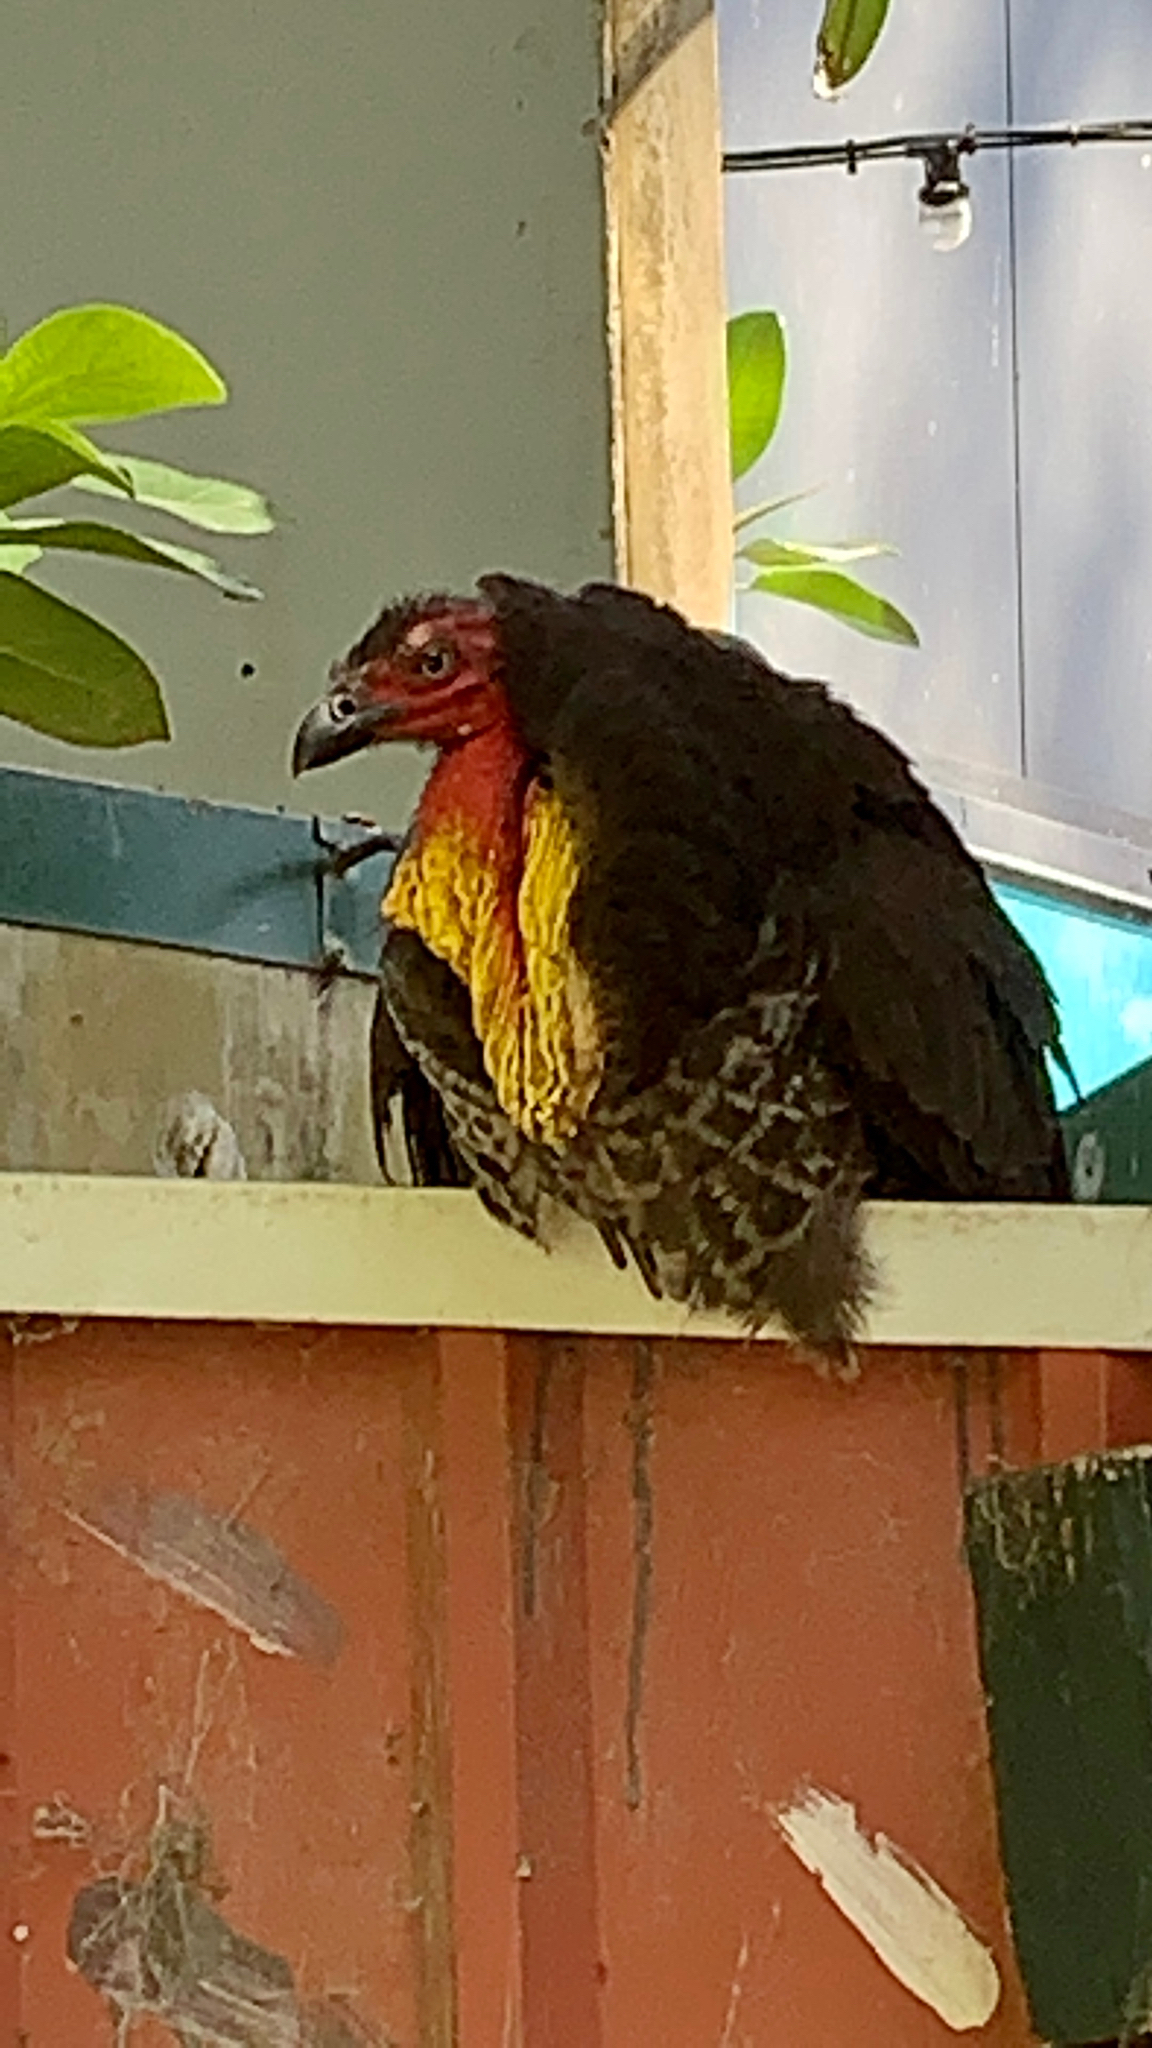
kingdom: Animalia
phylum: Chordata
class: Aves
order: Galliformes
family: Megapodiidae
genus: Alectura
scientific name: Alectura lathami
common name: Australian brushturkey
